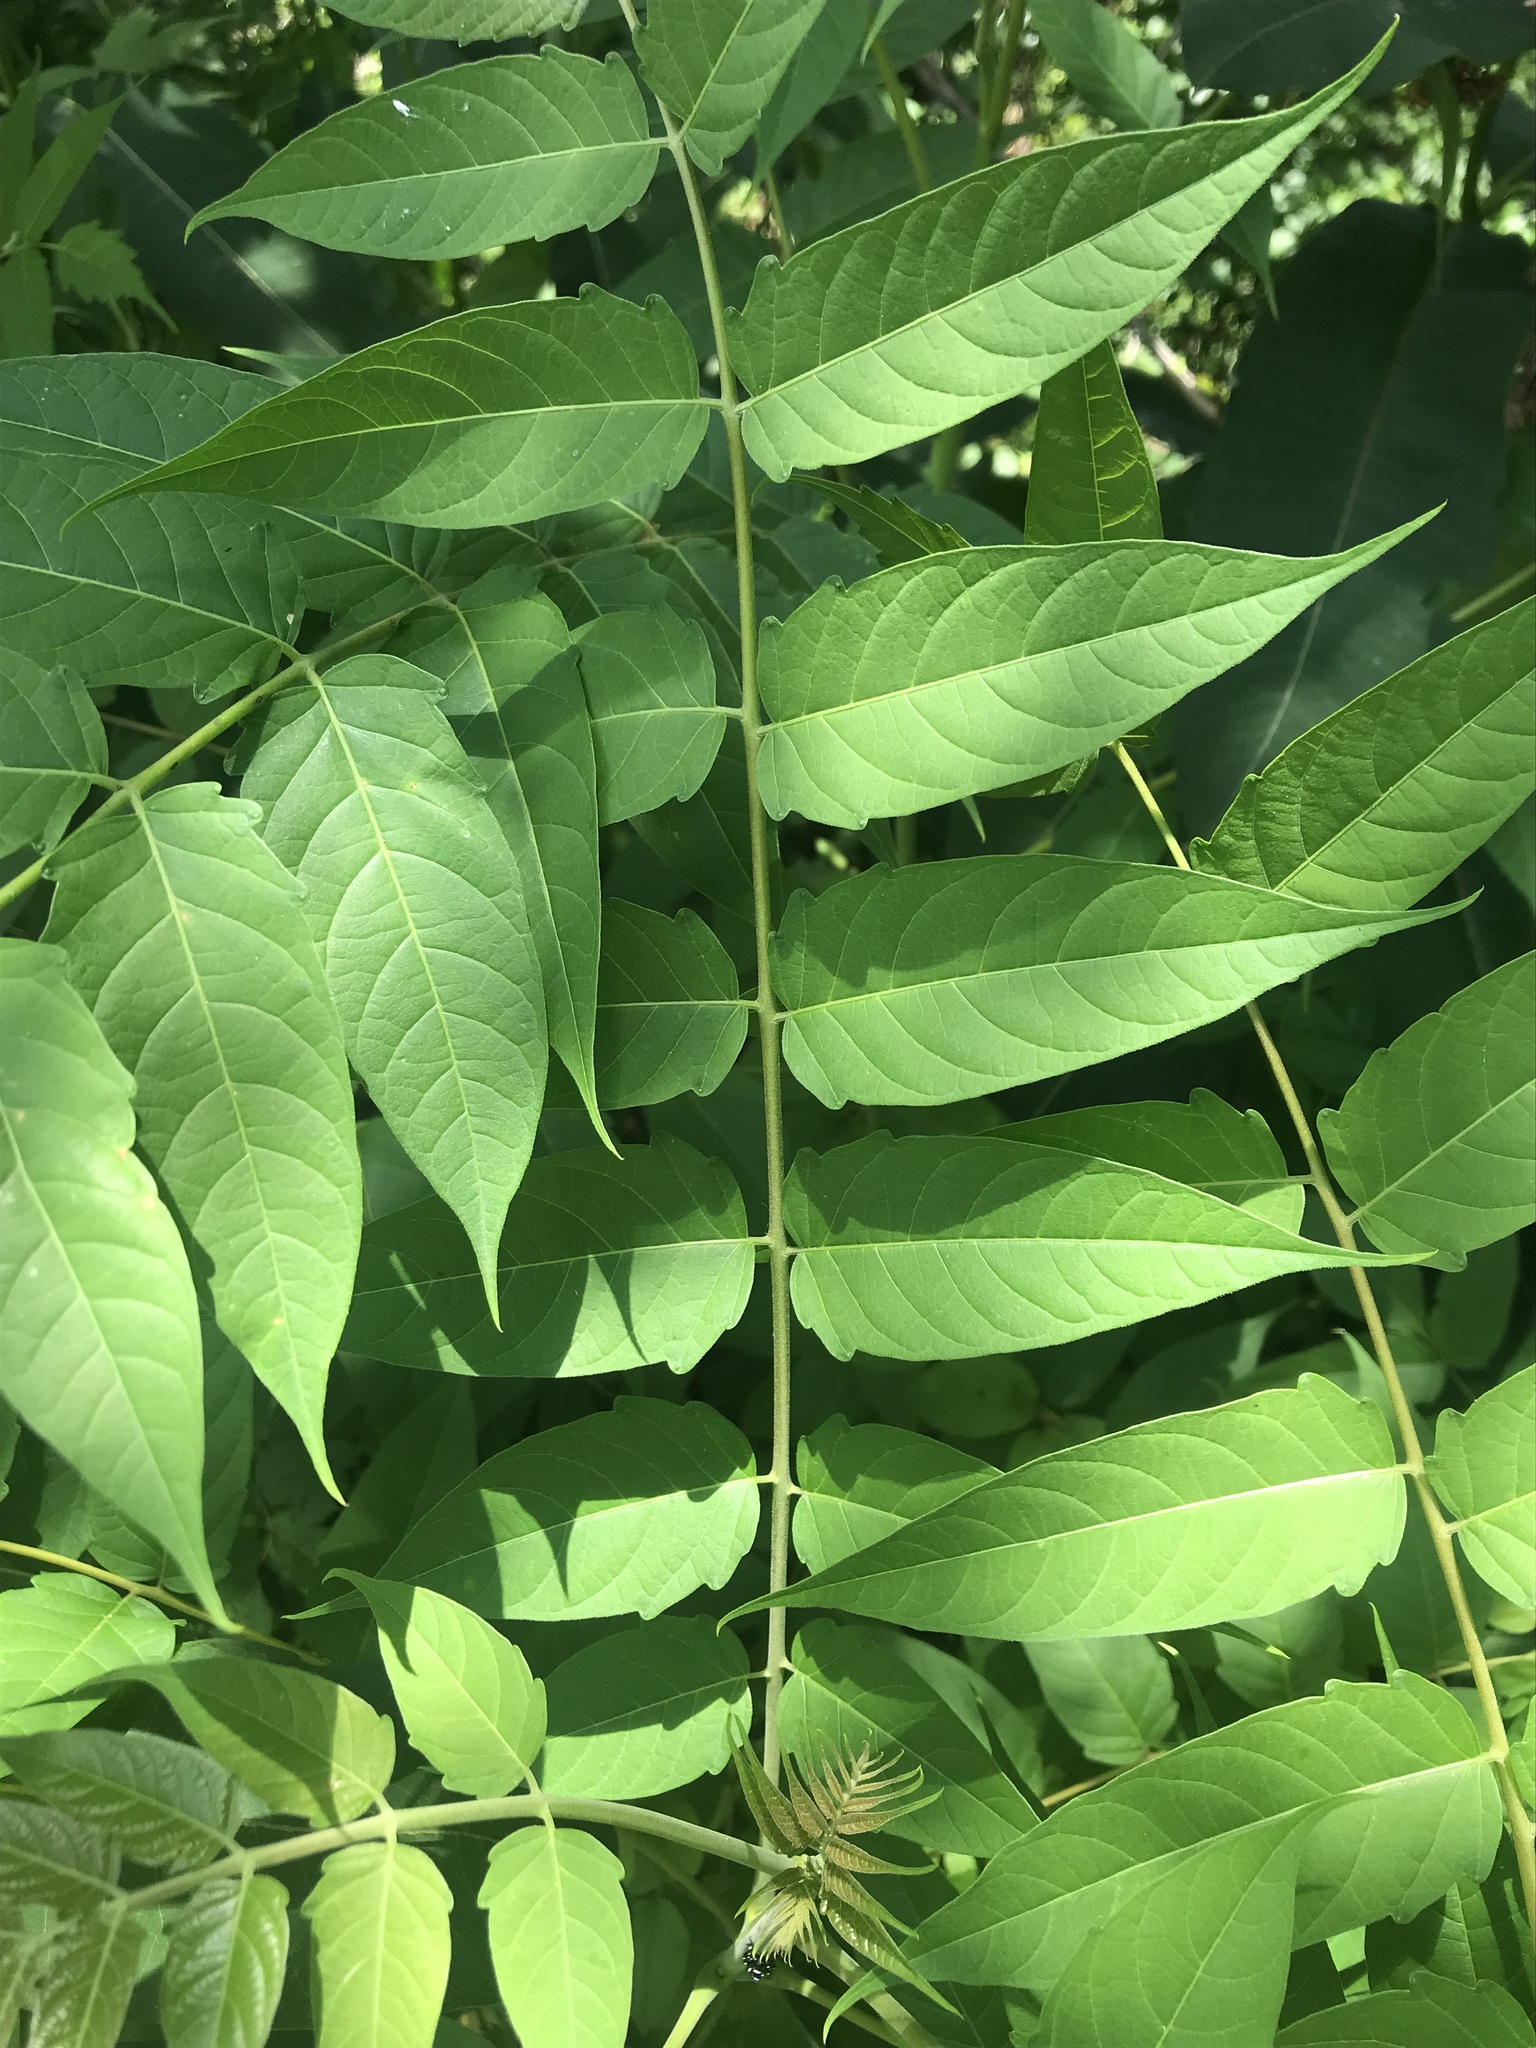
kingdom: Plantae
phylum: Tracheophyta
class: Magnoliopsida
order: Sapindales
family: Simaroubaceae
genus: Ailanthus
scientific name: Ailanthus altissima
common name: Tree-of-heaven
